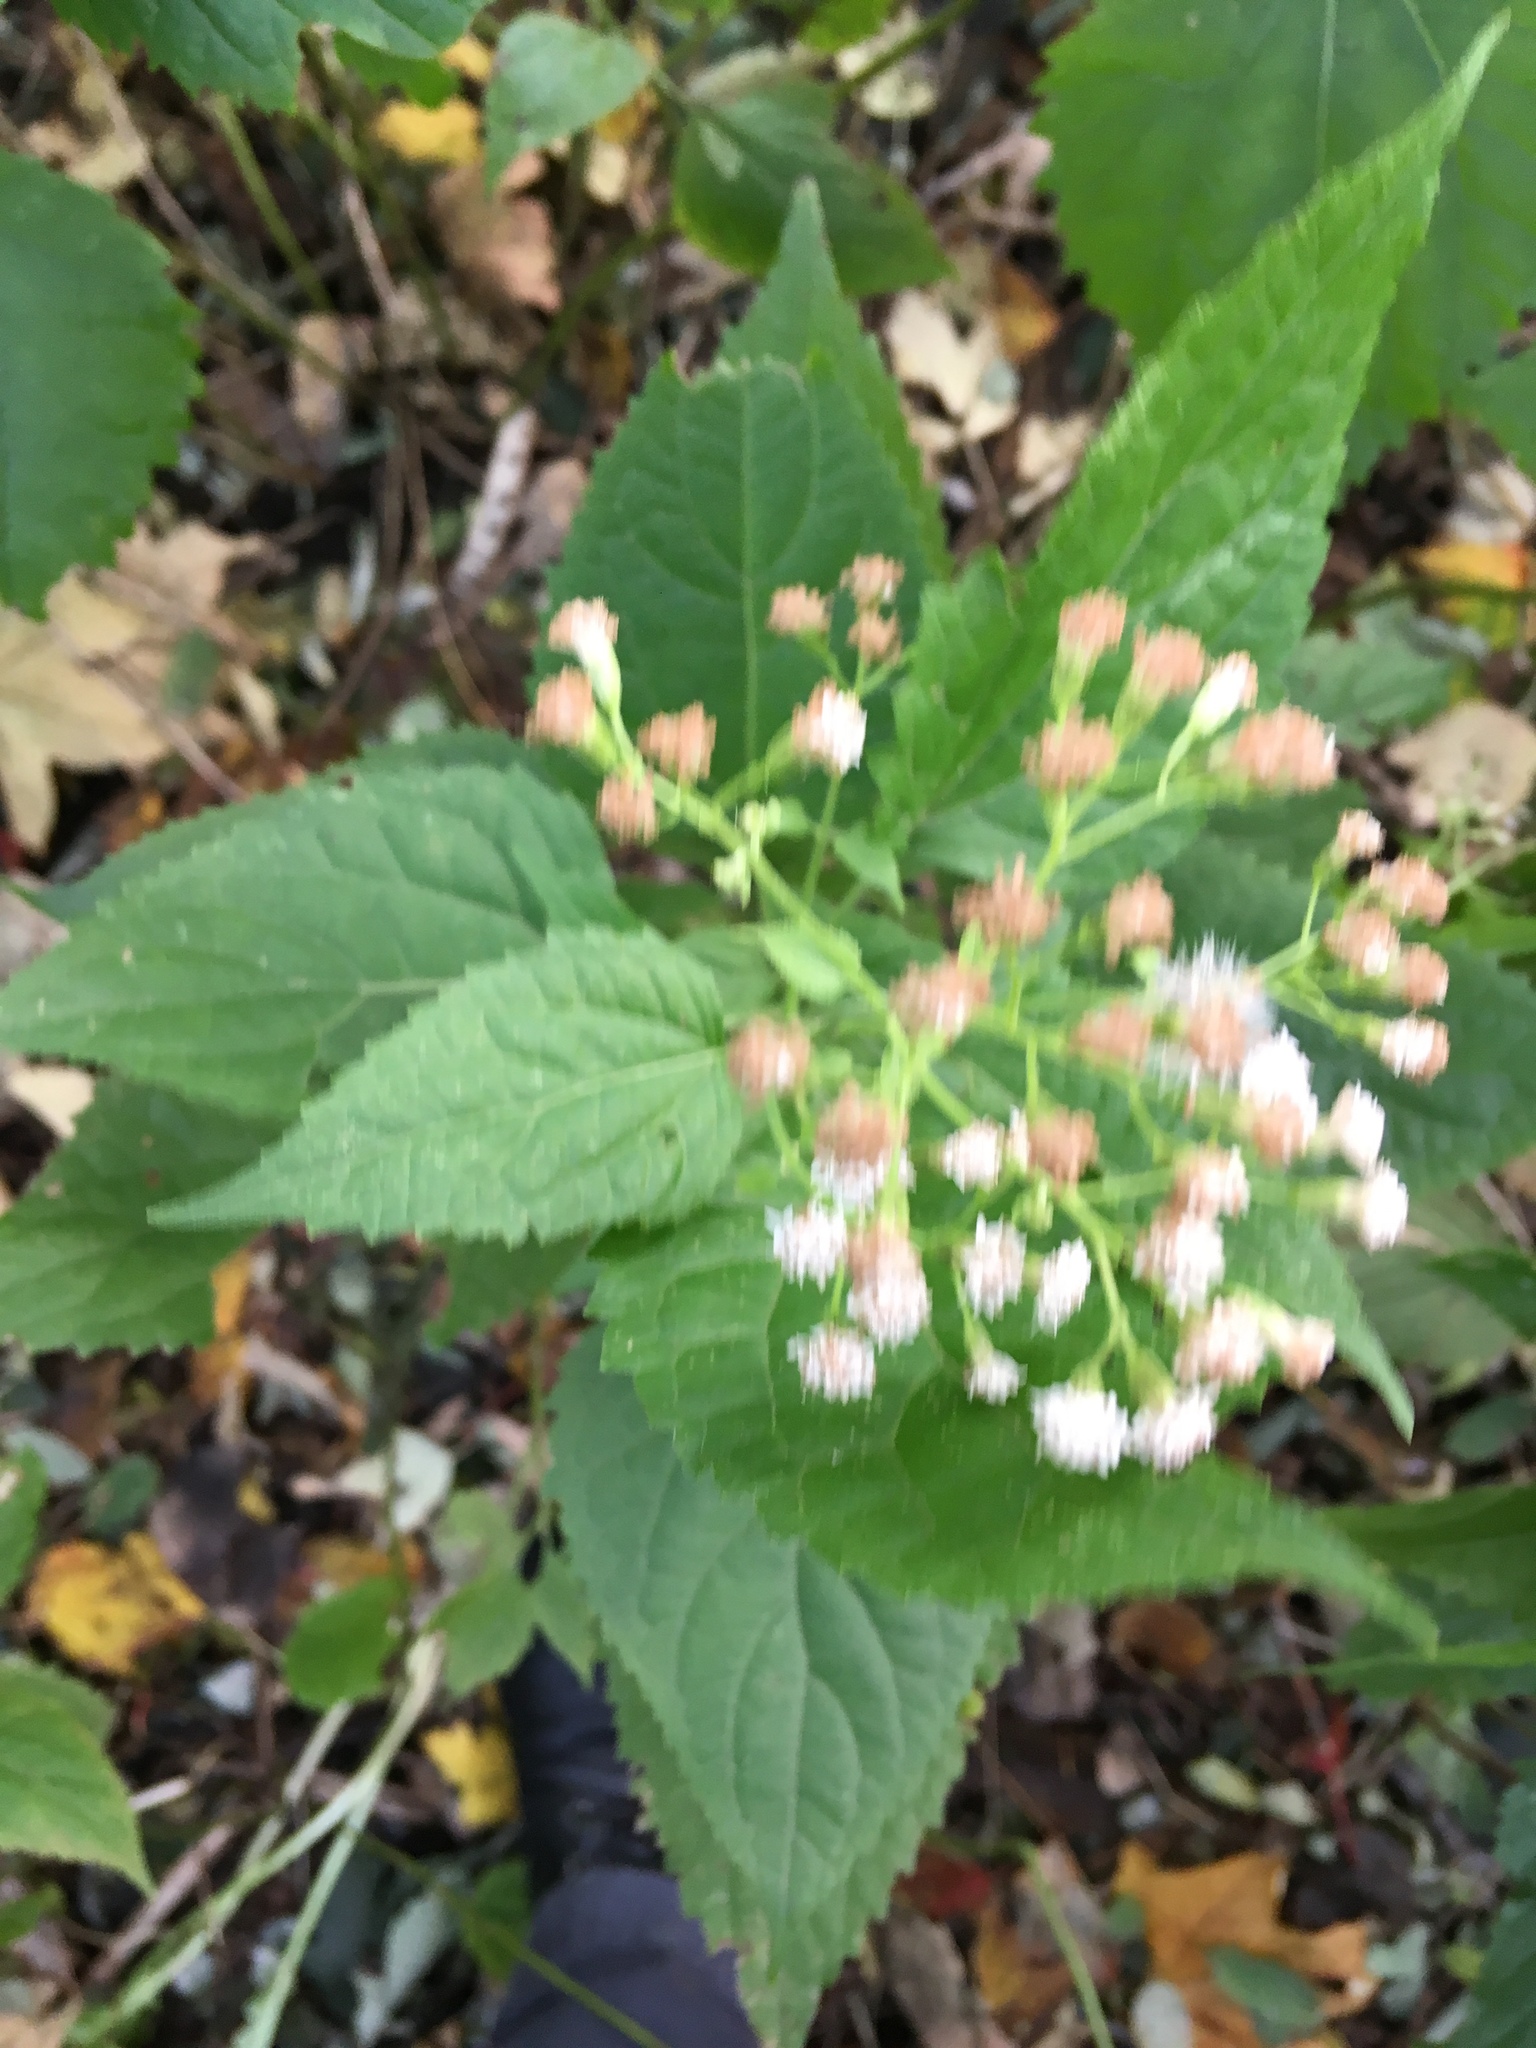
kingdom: Plantae
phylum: Tracheophyta
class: Magnoliopsida
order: Asterales
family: Asteraceae
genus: Ageratina
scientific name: Ageratina altissima
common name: White snakeroot
